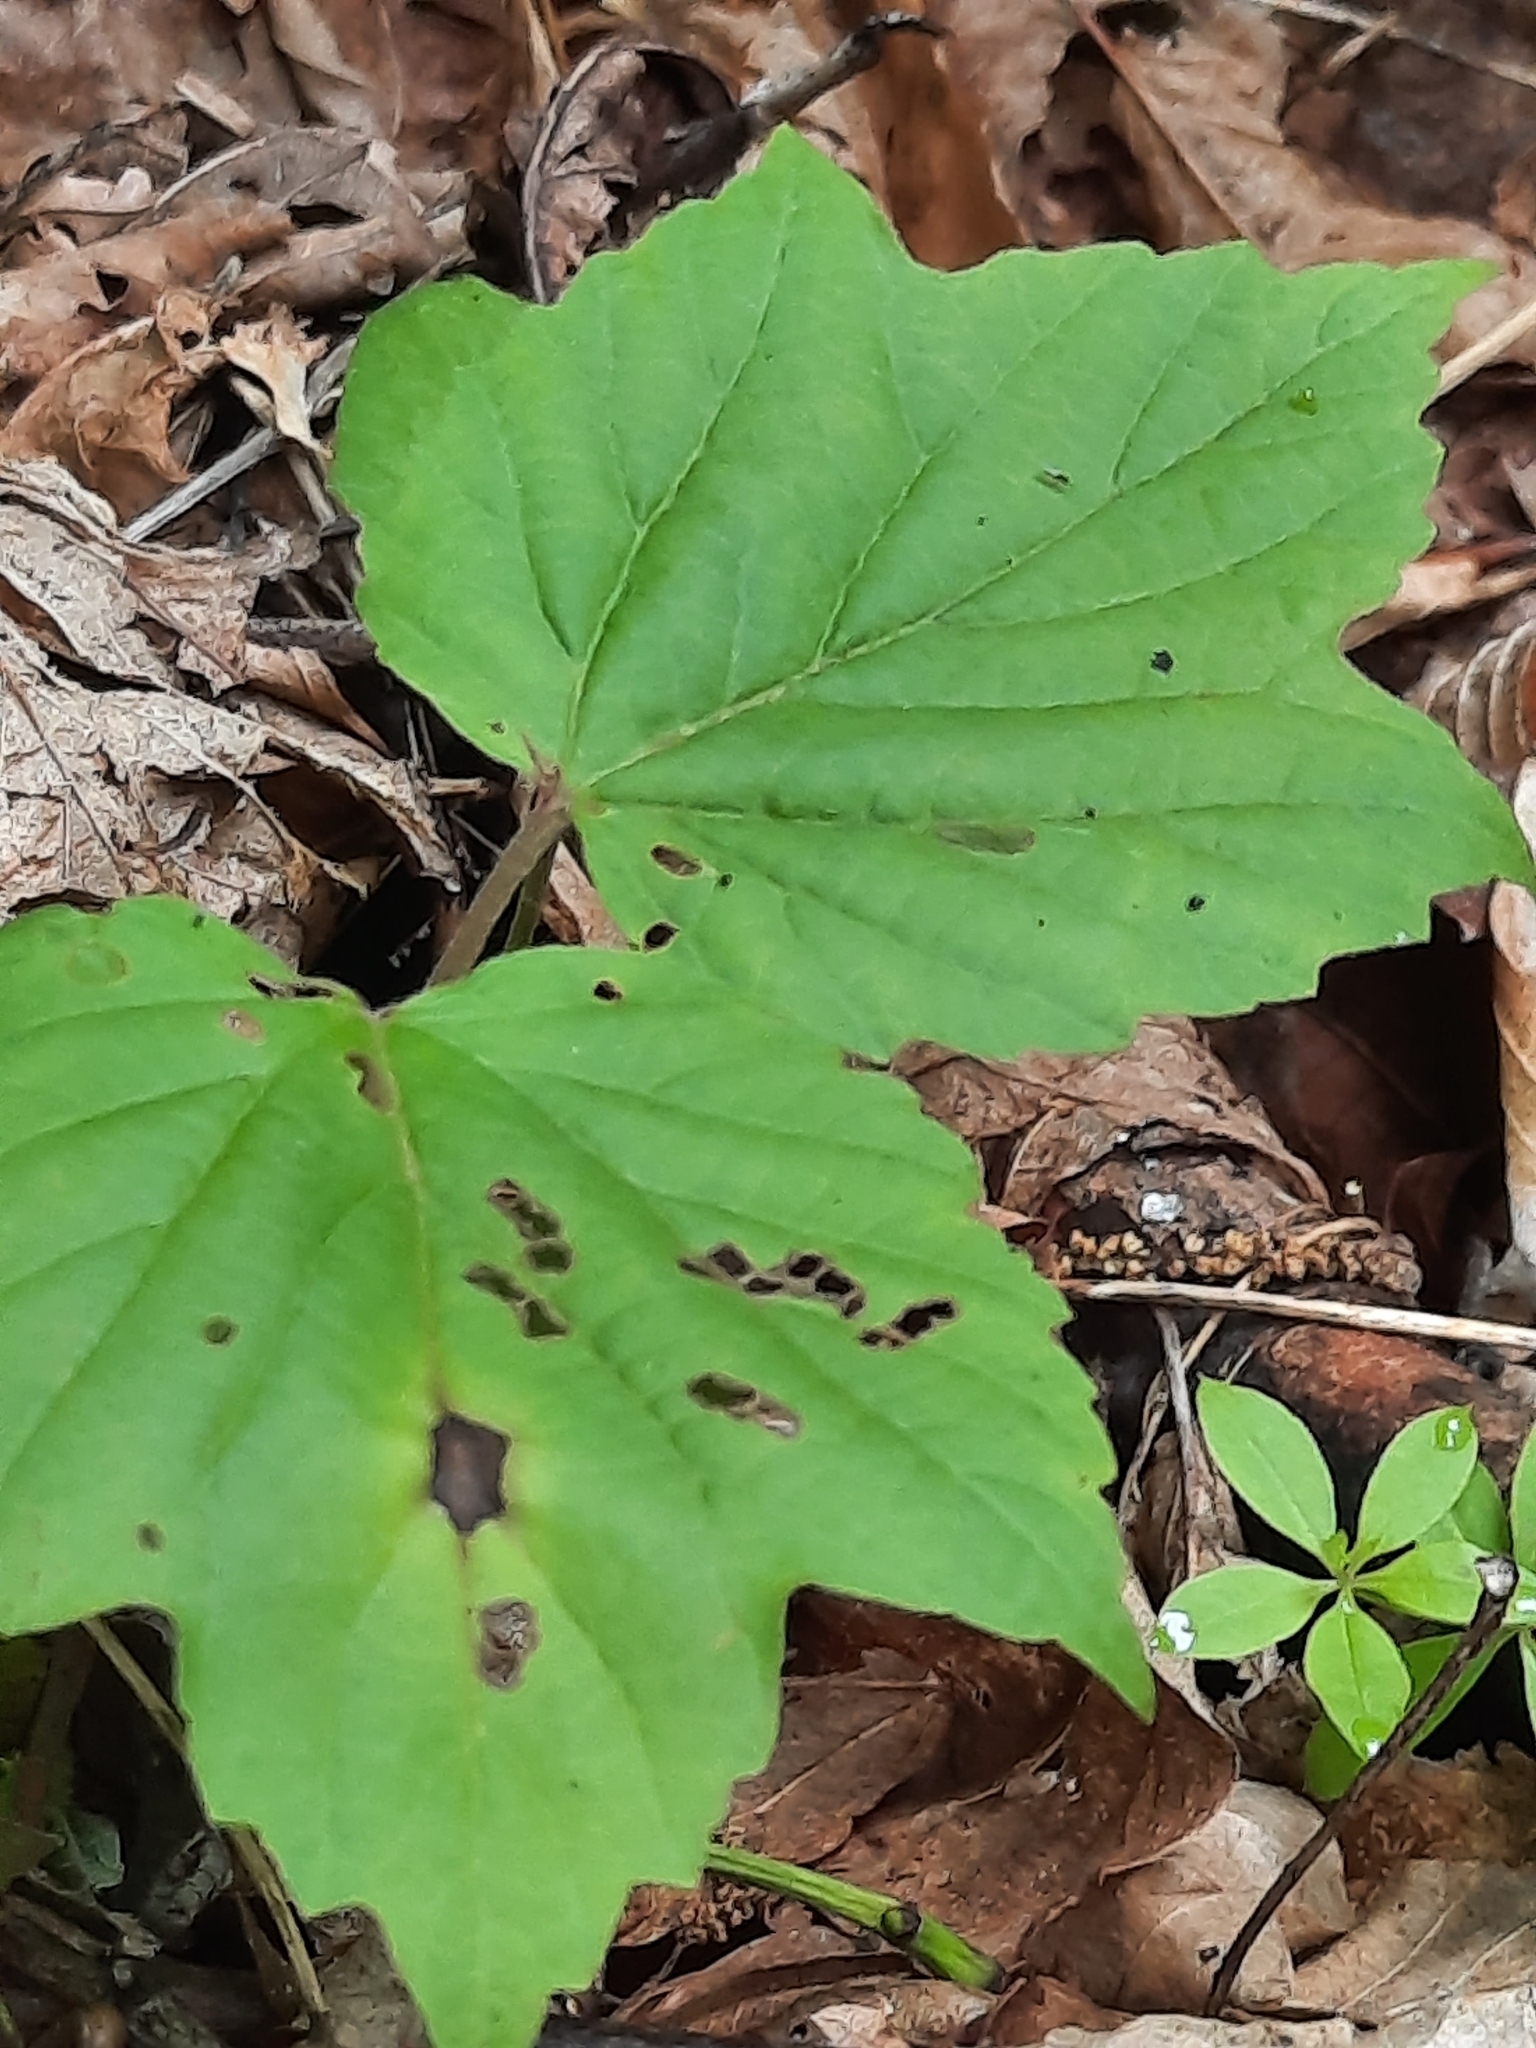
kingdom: Plantae
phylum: Tracheophyta
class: Magnoliopsida
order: Dipsacales
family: Viburnaceae
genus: Viburnum
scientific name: Viburnum acerifolium
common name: Dockmackie
